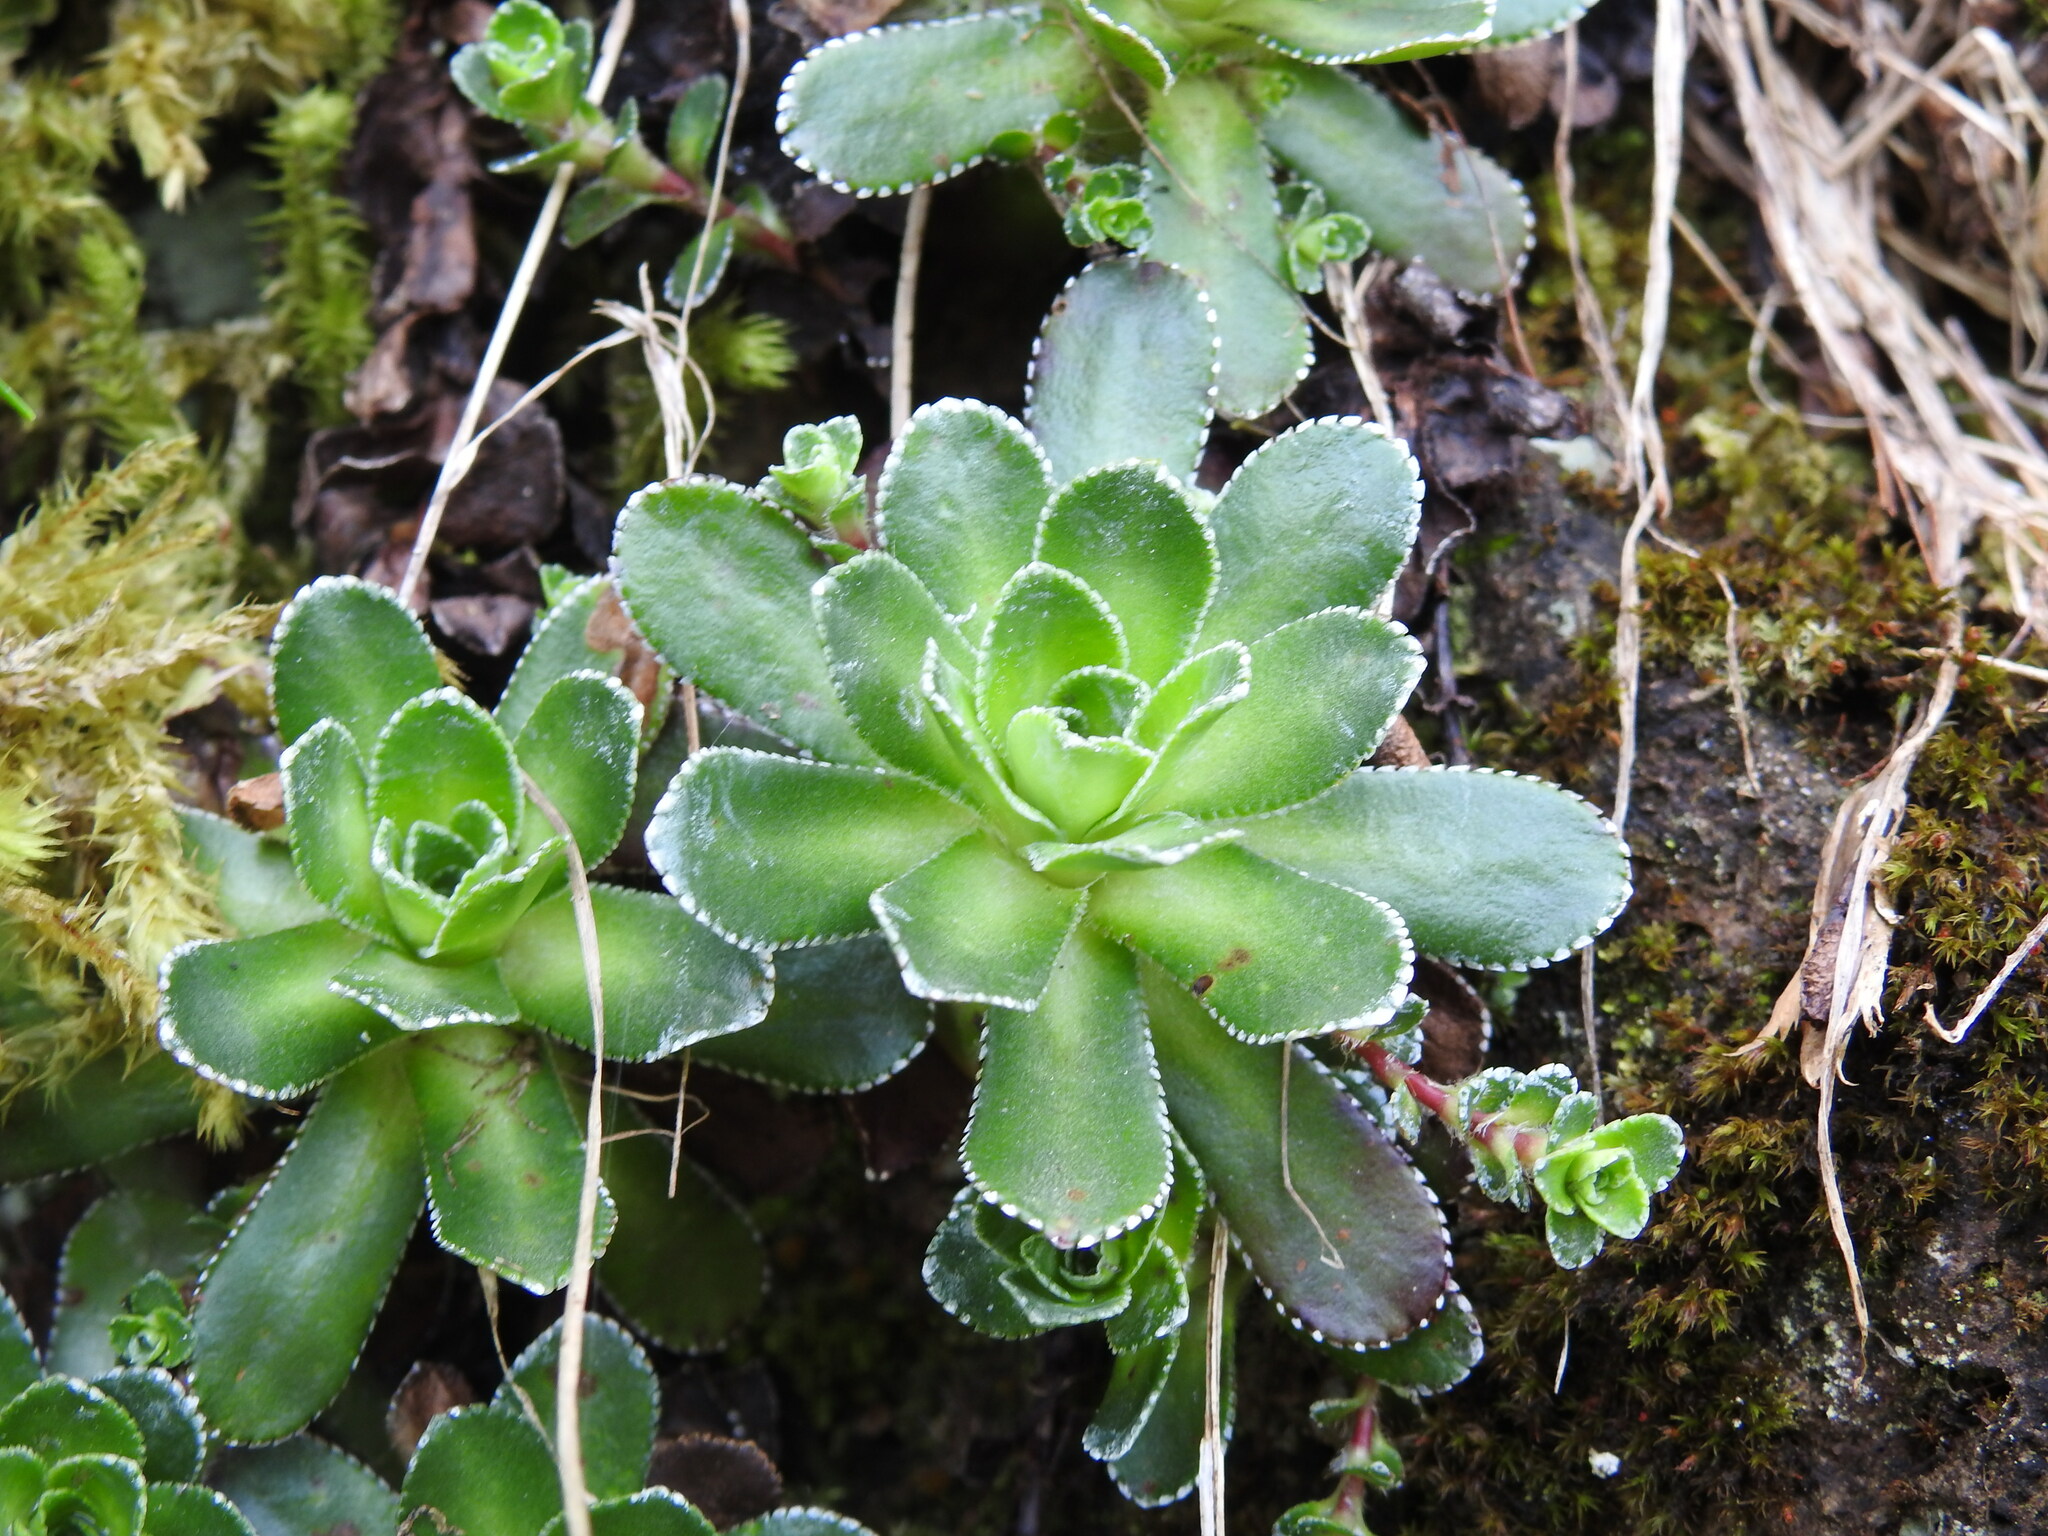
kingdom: Plantae
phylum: Tracheophyta
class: Magnoliopsida
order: Saxifragales
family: Saxifragaceae
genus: Saxifraga
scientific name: Saxifraga paniculata
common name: Livelong saxifrage
